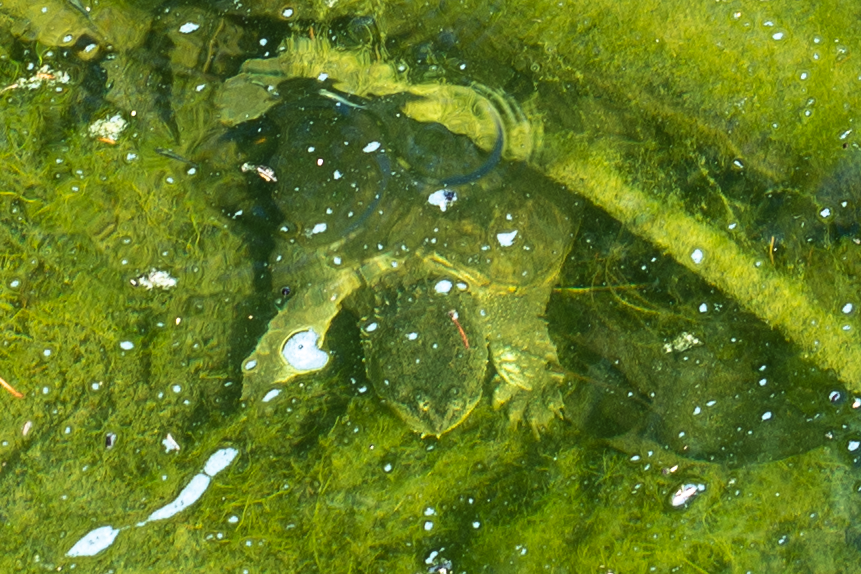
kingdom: Animalia
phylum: Chordata
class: Testudines
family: Chelydridae
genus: Chelydra
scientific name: Chelydra serpentina
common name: Common snapping turtle
